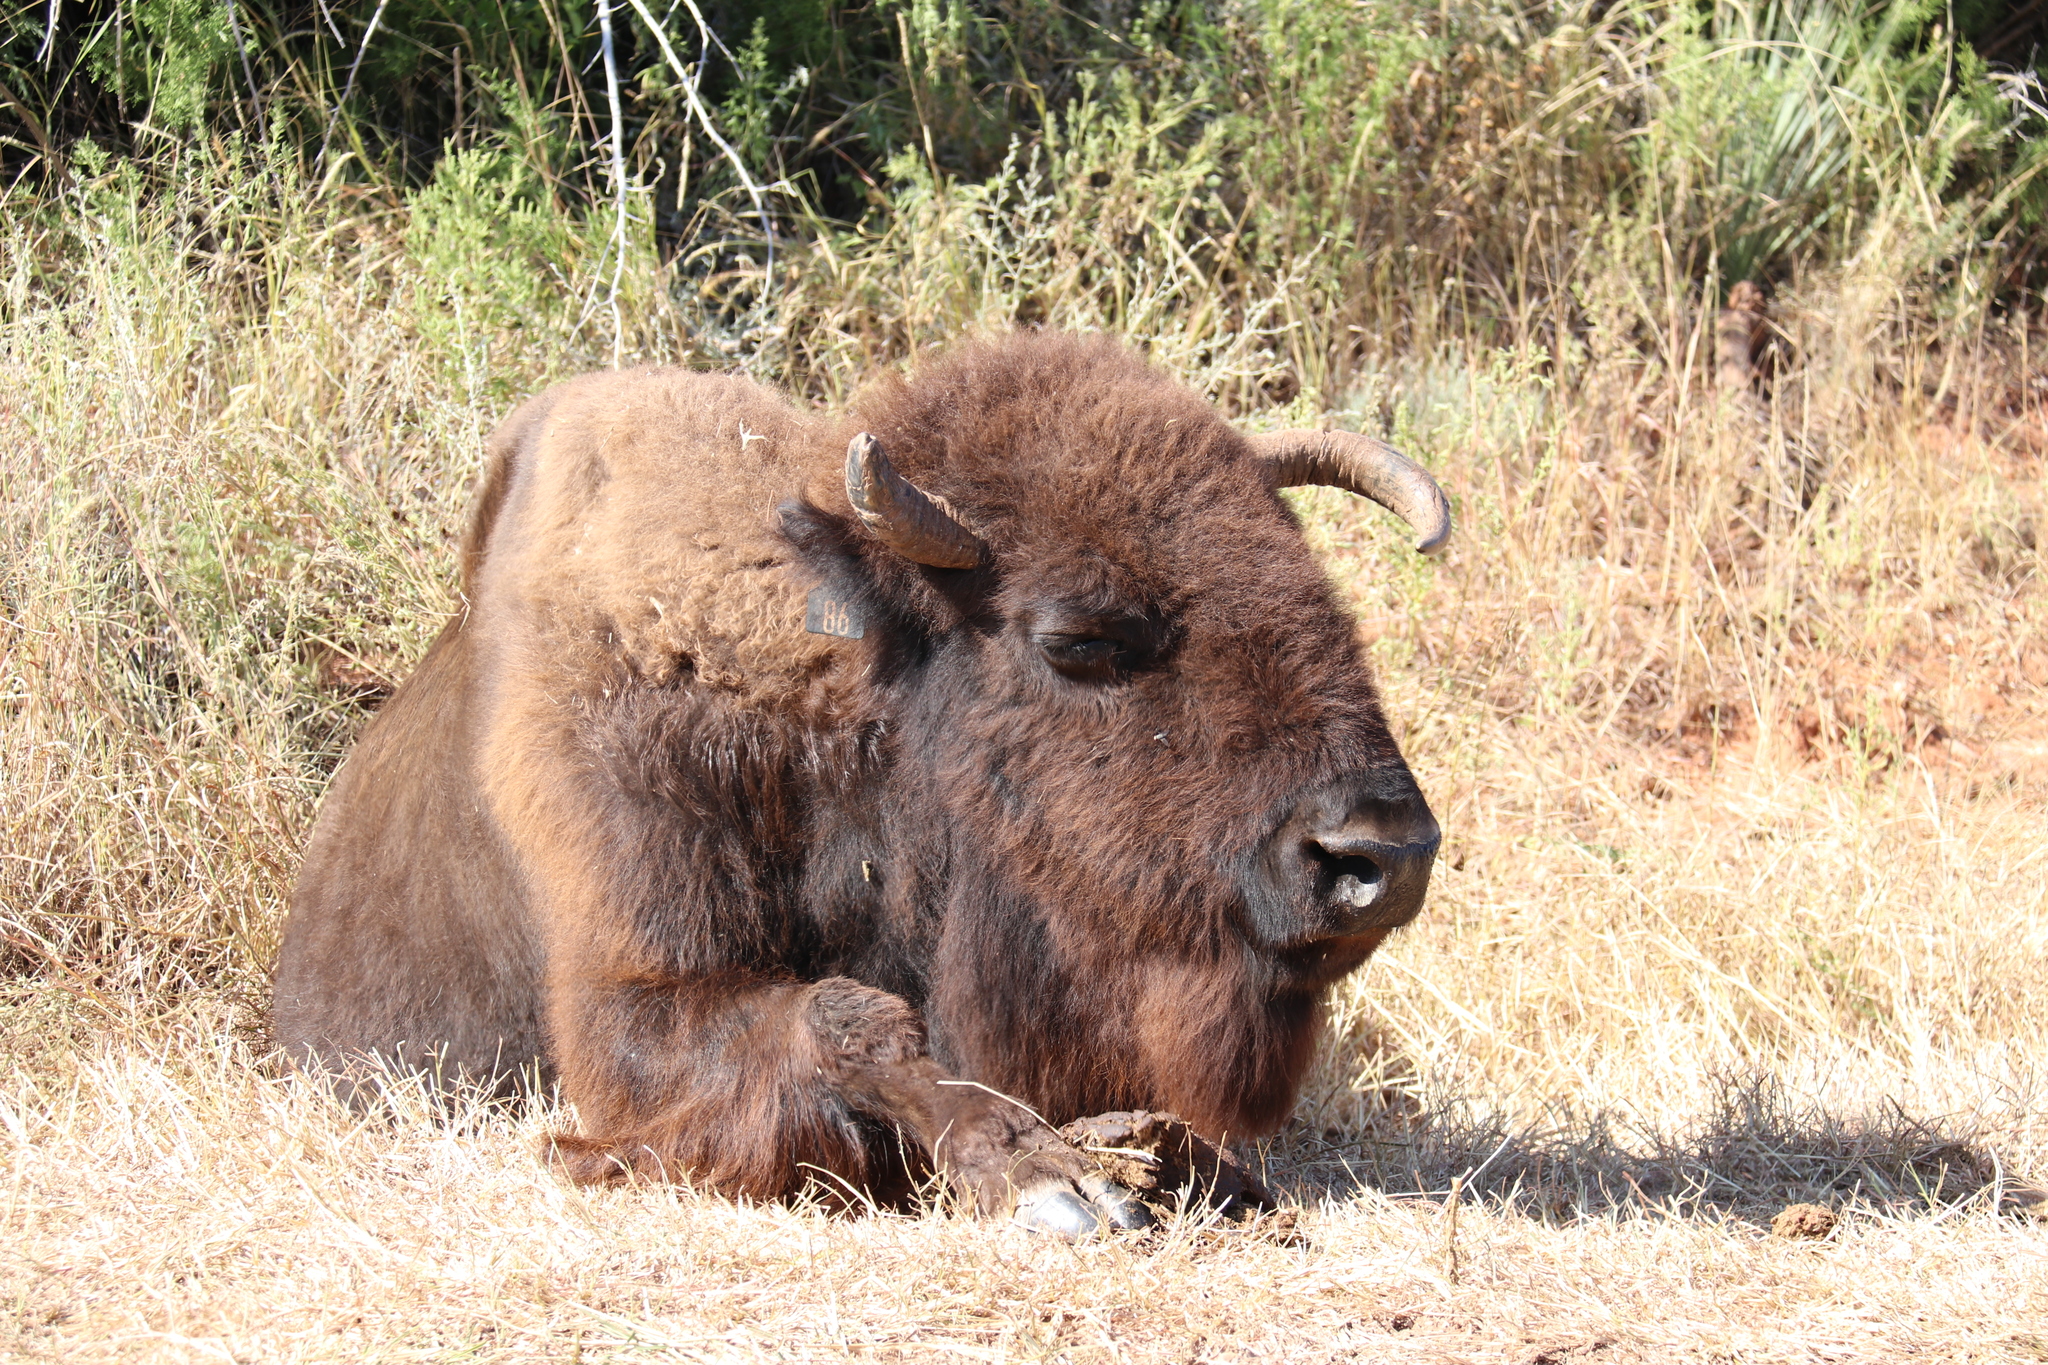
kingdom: Animalia
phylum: Chordata
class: Mammalia
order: Artiodactyla
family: Bovidae
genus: Bison
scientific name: Bison bison
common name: American bison
